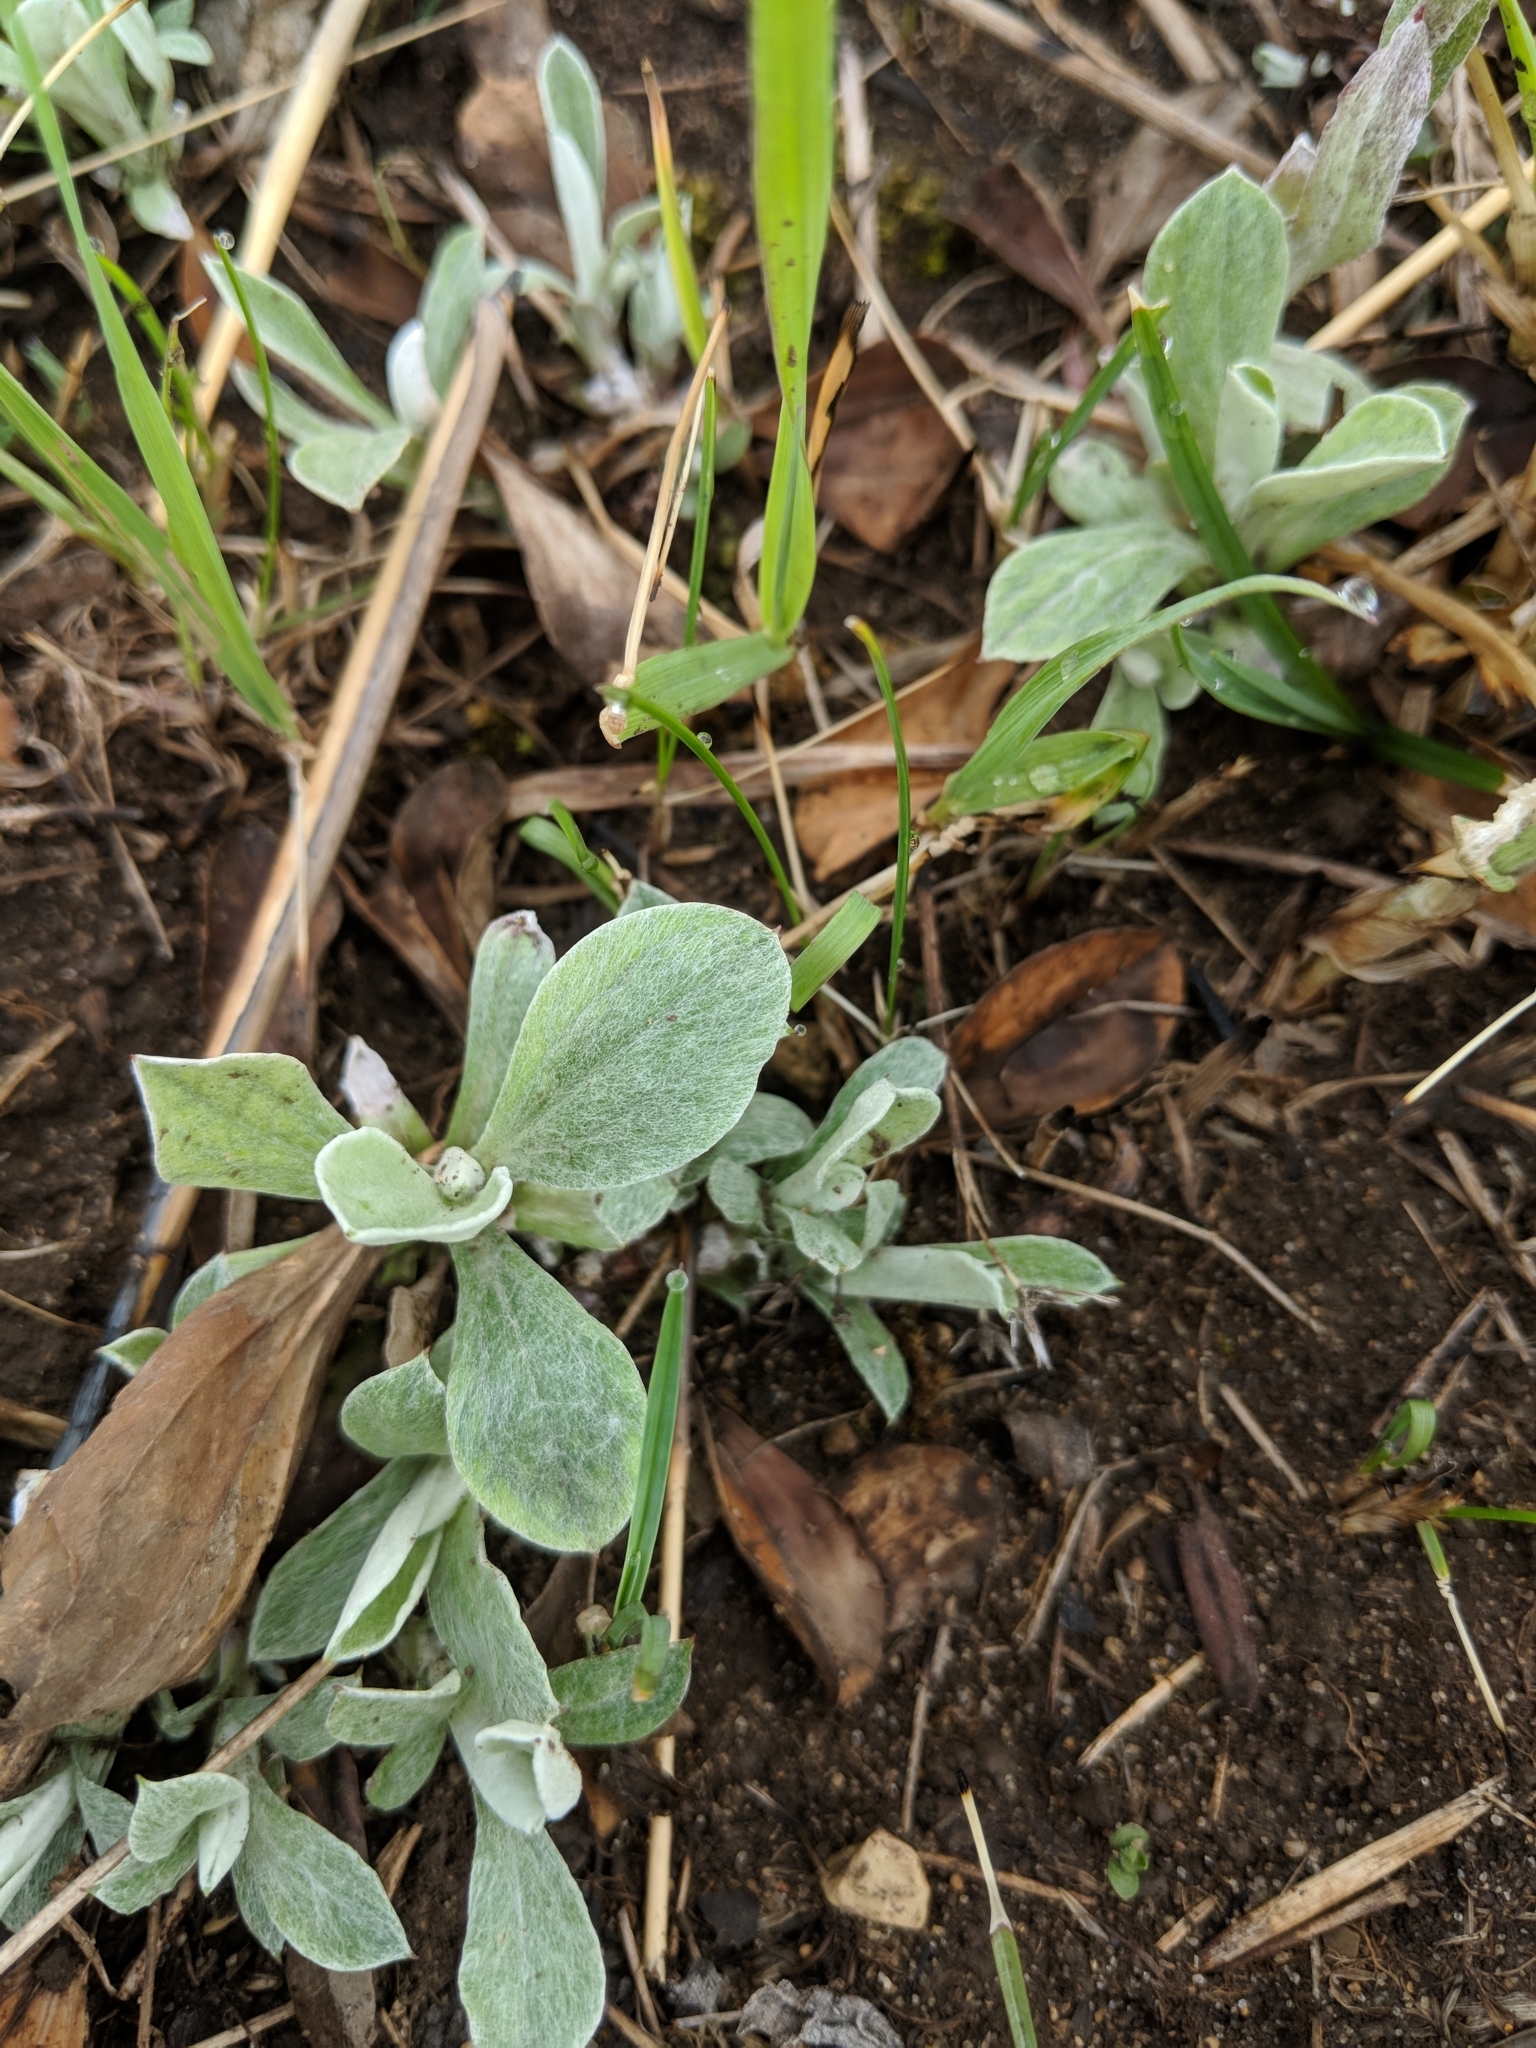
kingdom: Plantae
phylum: Tracheophyta
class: Magnoliopsida
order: Asterales
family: Asteraceae
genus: Antennaria
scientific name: Antennaria neglecta
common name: Field pussytoes
